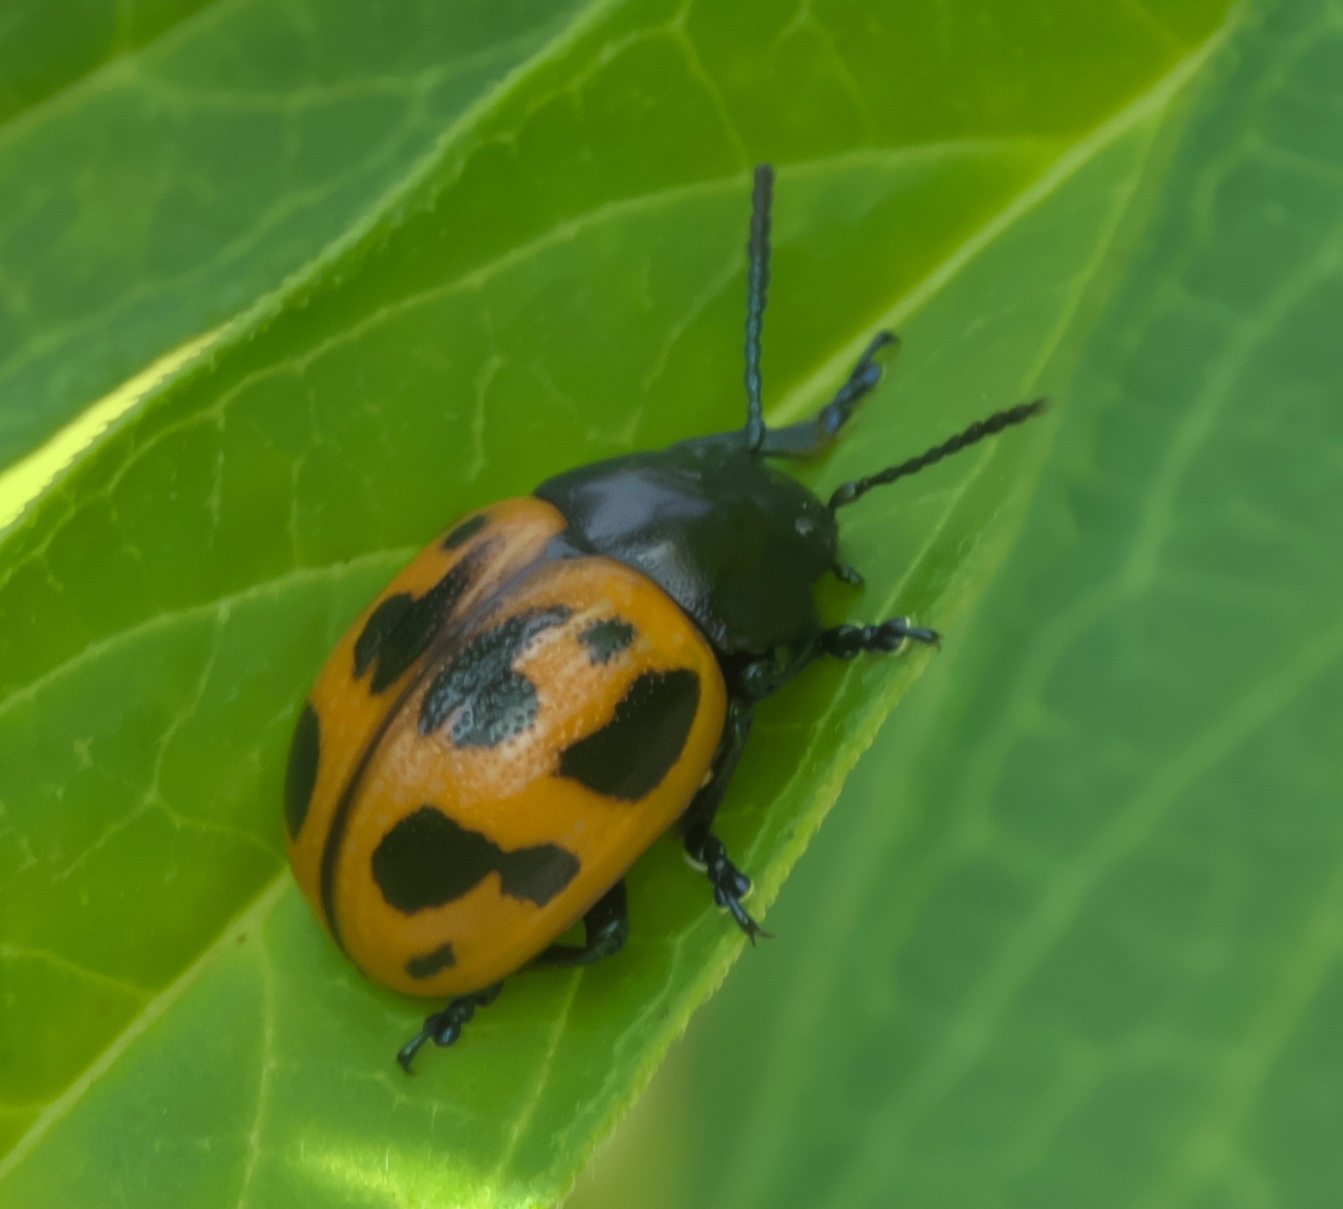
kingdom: Animalia
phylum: Arthropoda
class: Insecta
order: Coleoptera
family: Chrysomelidae
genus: Labidomera
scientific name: Labidomera clivicollis
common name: Swamp milkweed leaf beetle
